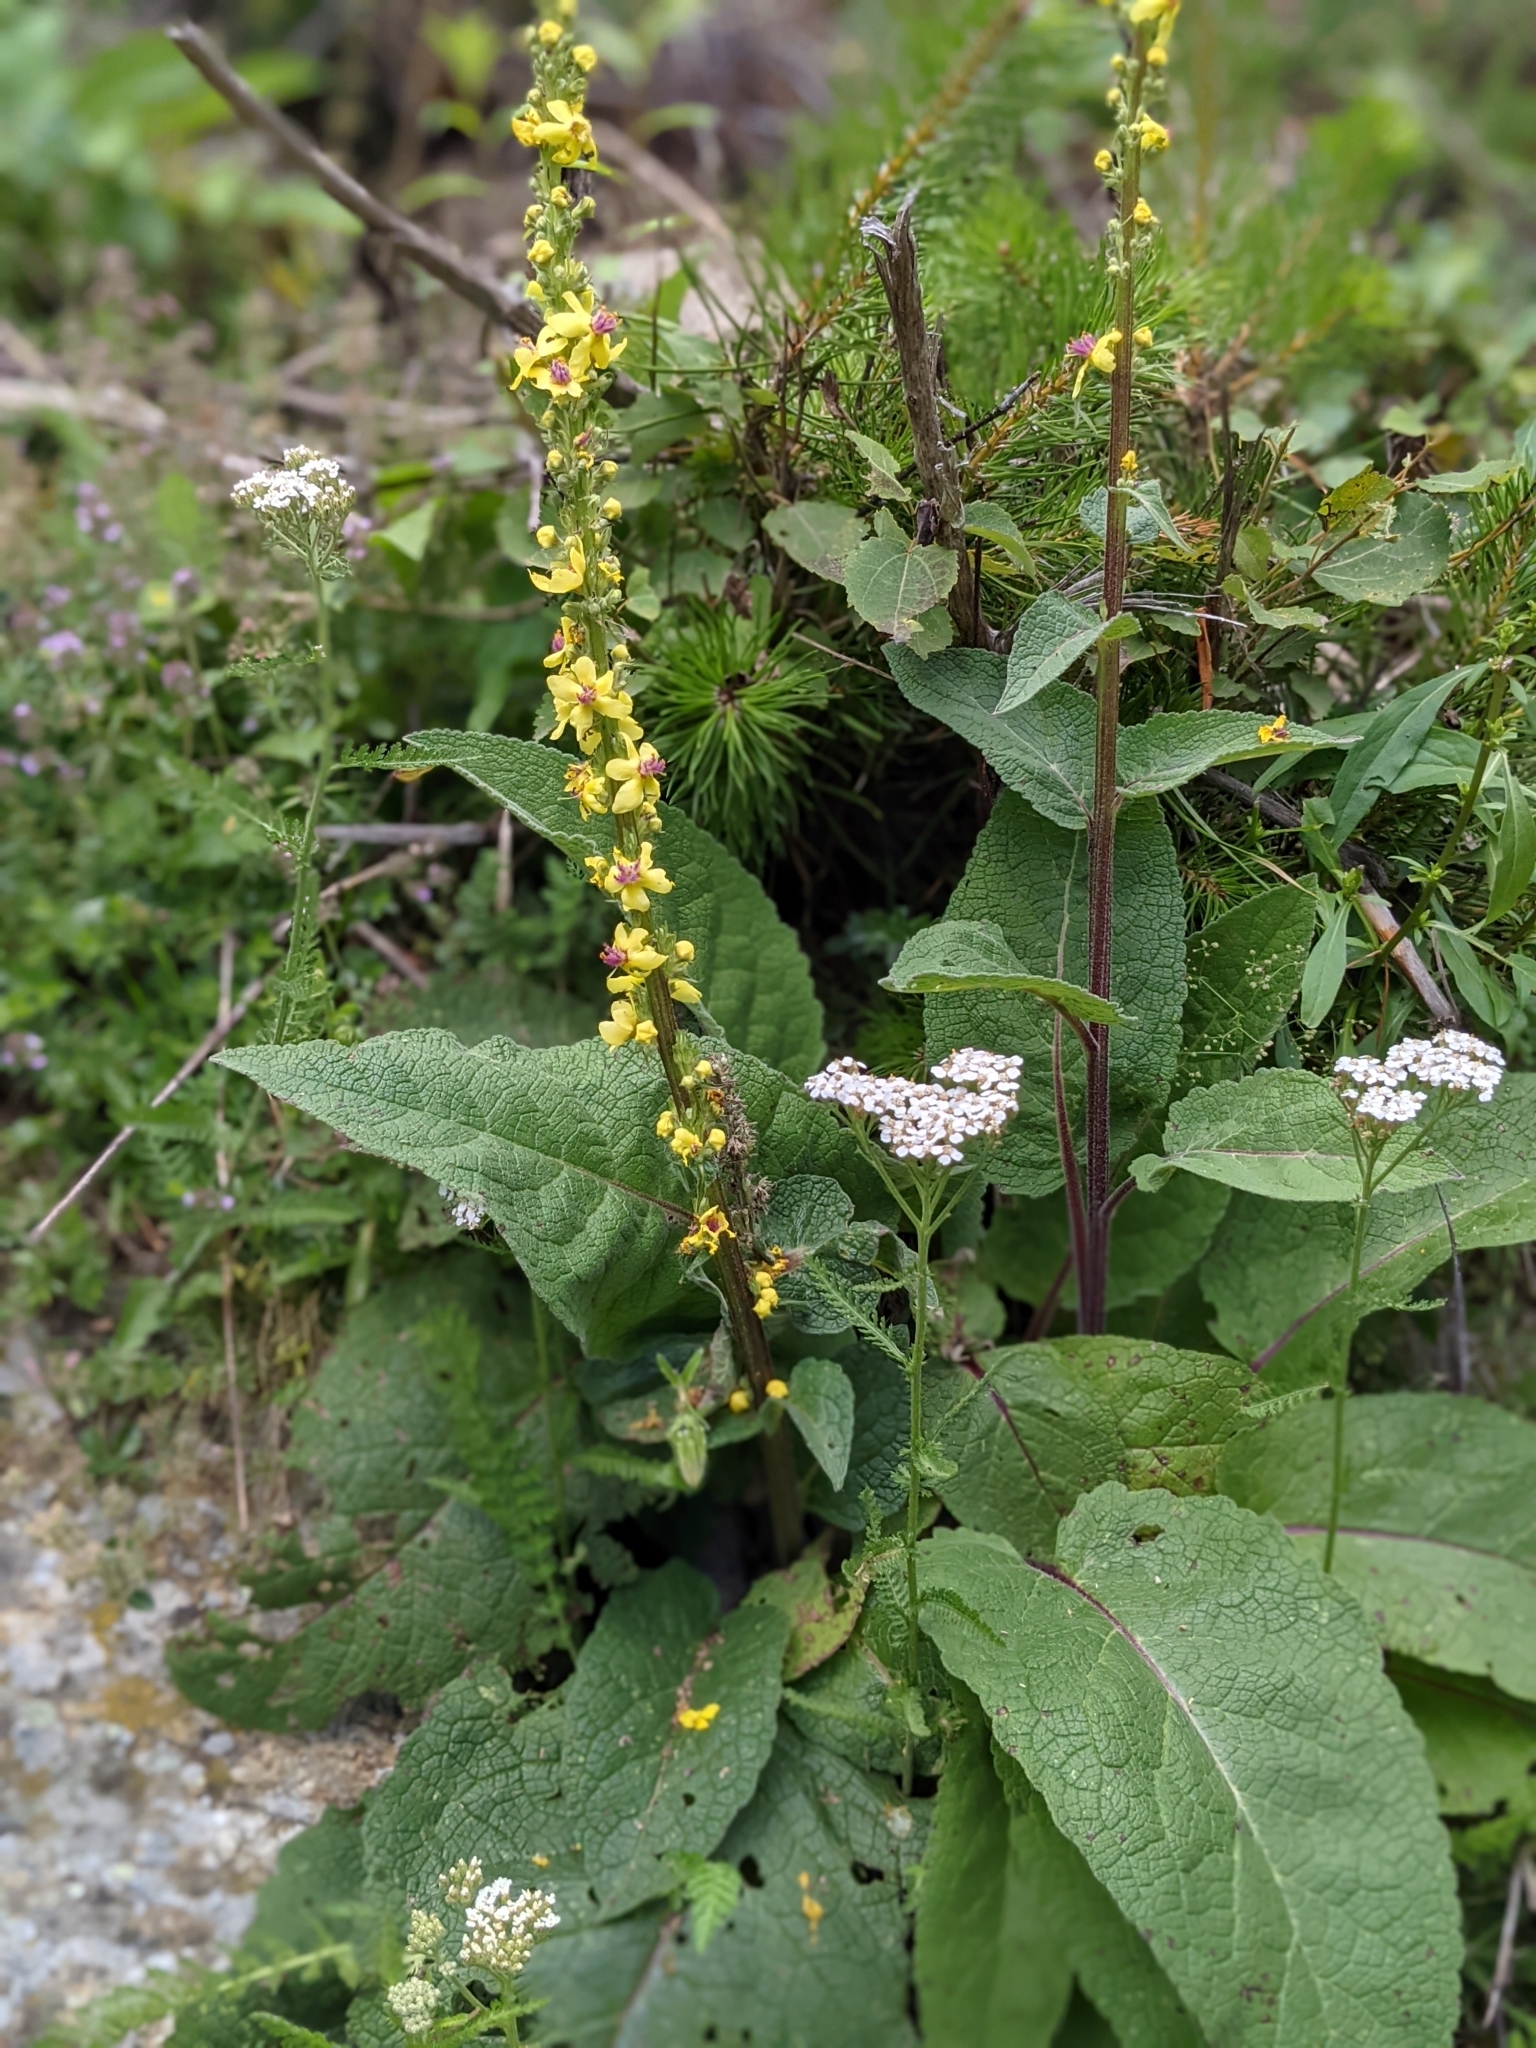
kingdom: Plantae
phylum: Tracheophyta
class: Magnoliopsida
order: Lamiales
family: Scrophulariaceae
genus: Verbascum
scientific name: Verbascum nigrum
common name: Dark mullein
